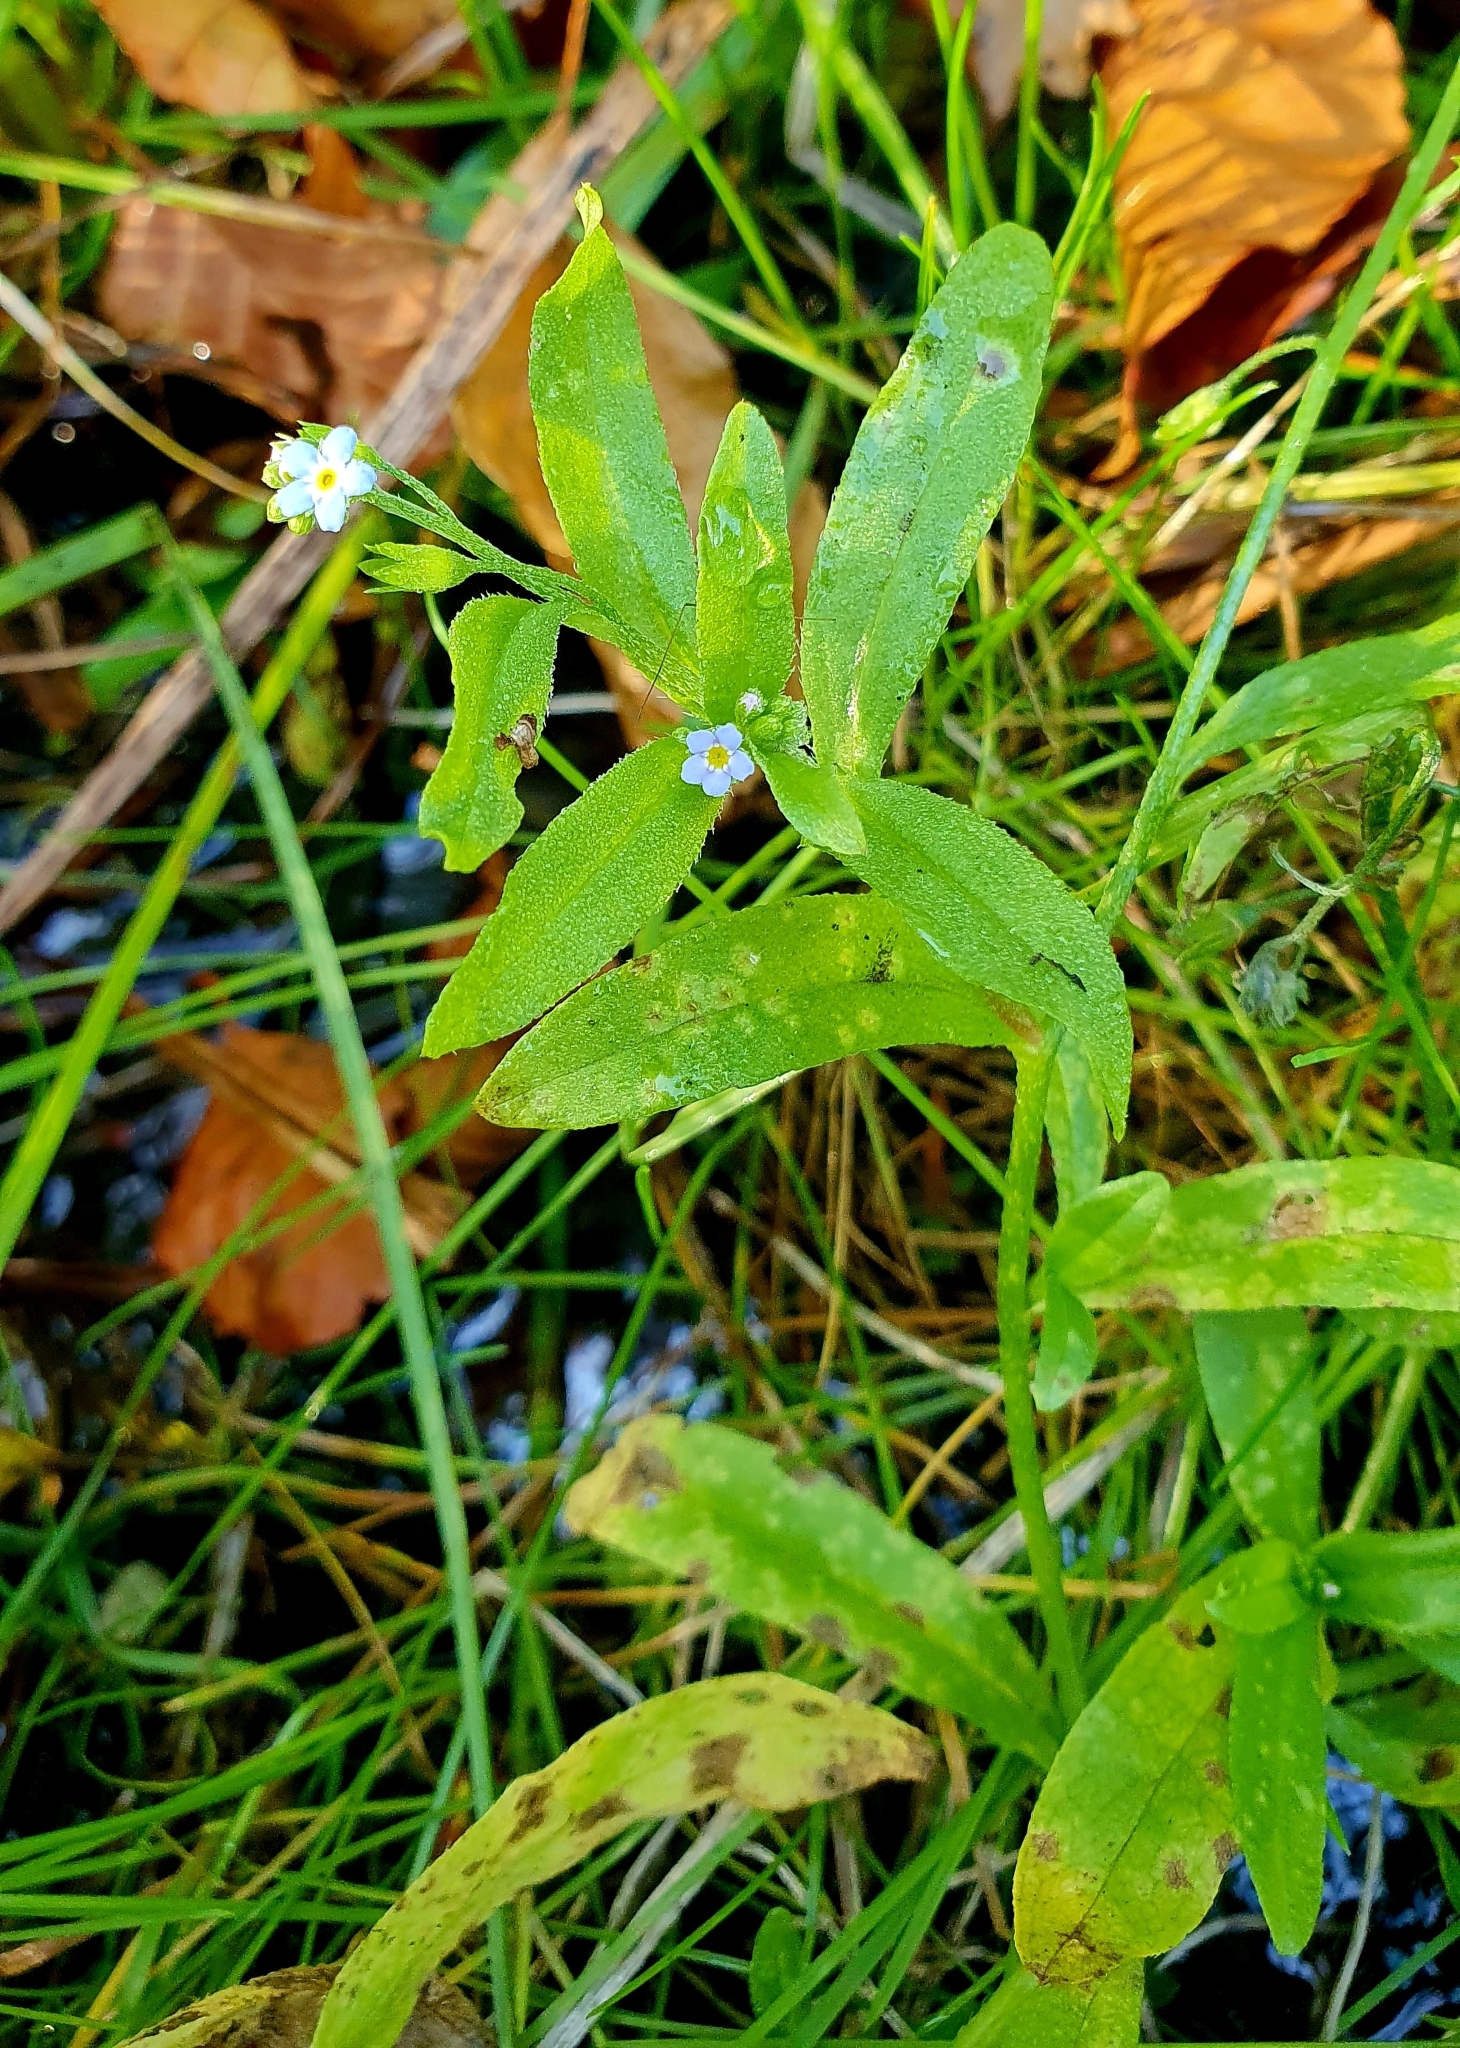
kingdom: Plantae
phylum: Tracheophyta
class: Magnoliopsida
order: Boraginales
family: Boraginaceae
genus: Myosotis
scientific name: Myosotis laxa
